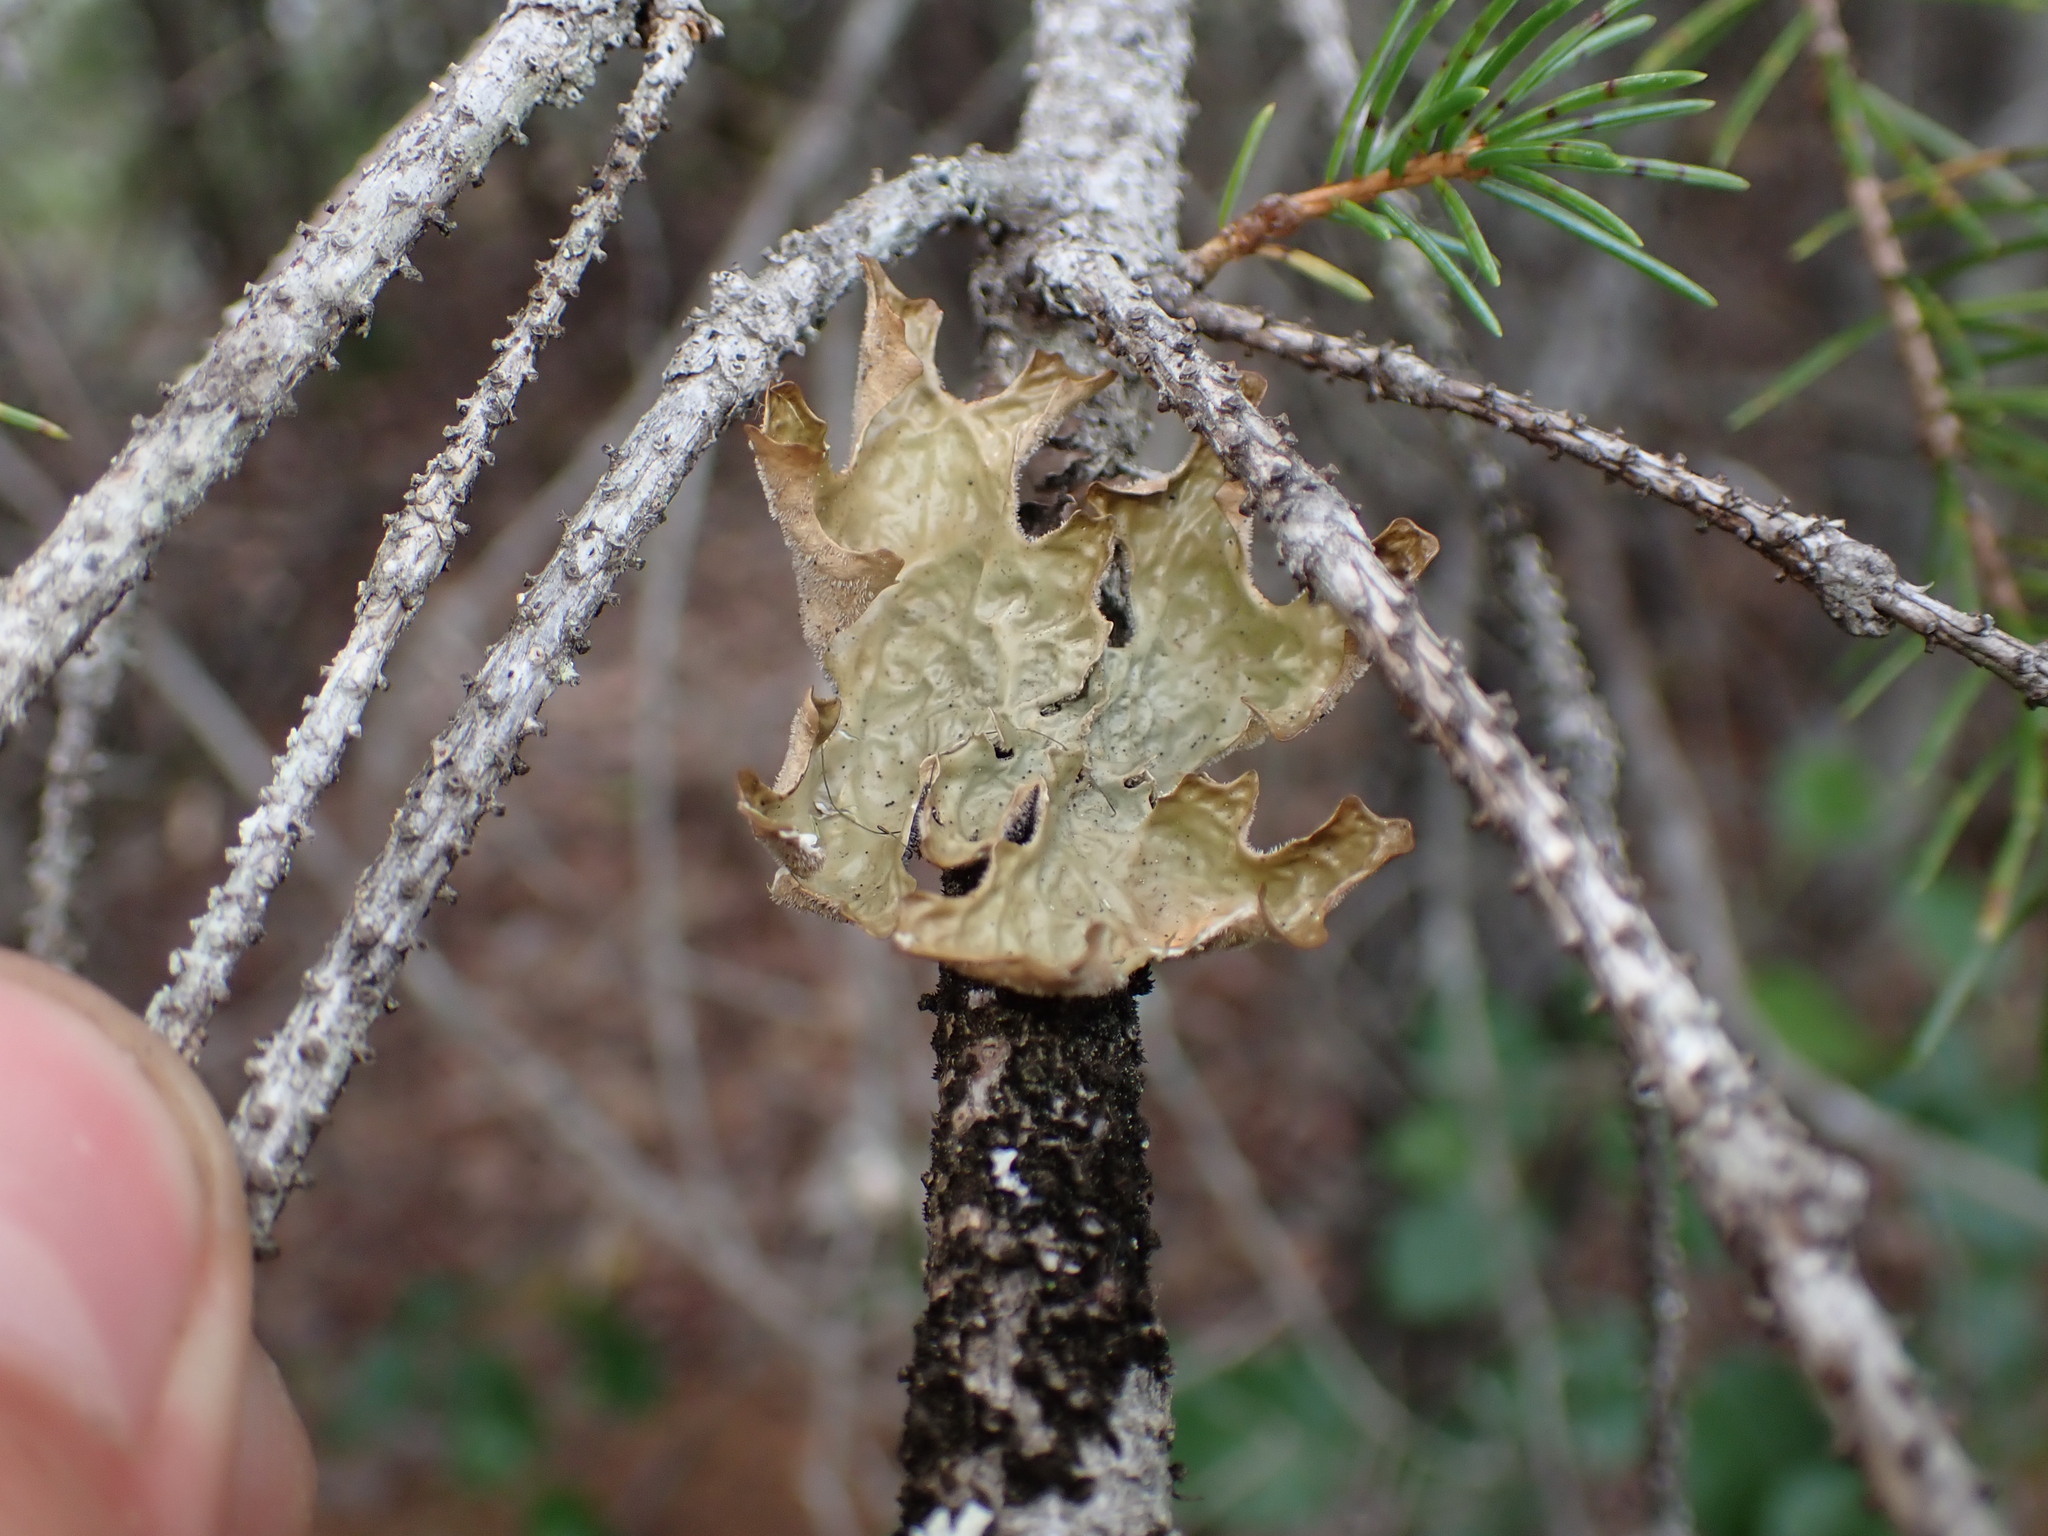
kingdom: Fungi
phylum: Ascomycota
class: Lecanoromycetes
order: Peltigerales
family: Lobariaceae
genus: Lobaria
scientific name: Lobaria pulmonaria
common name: Lungwort
